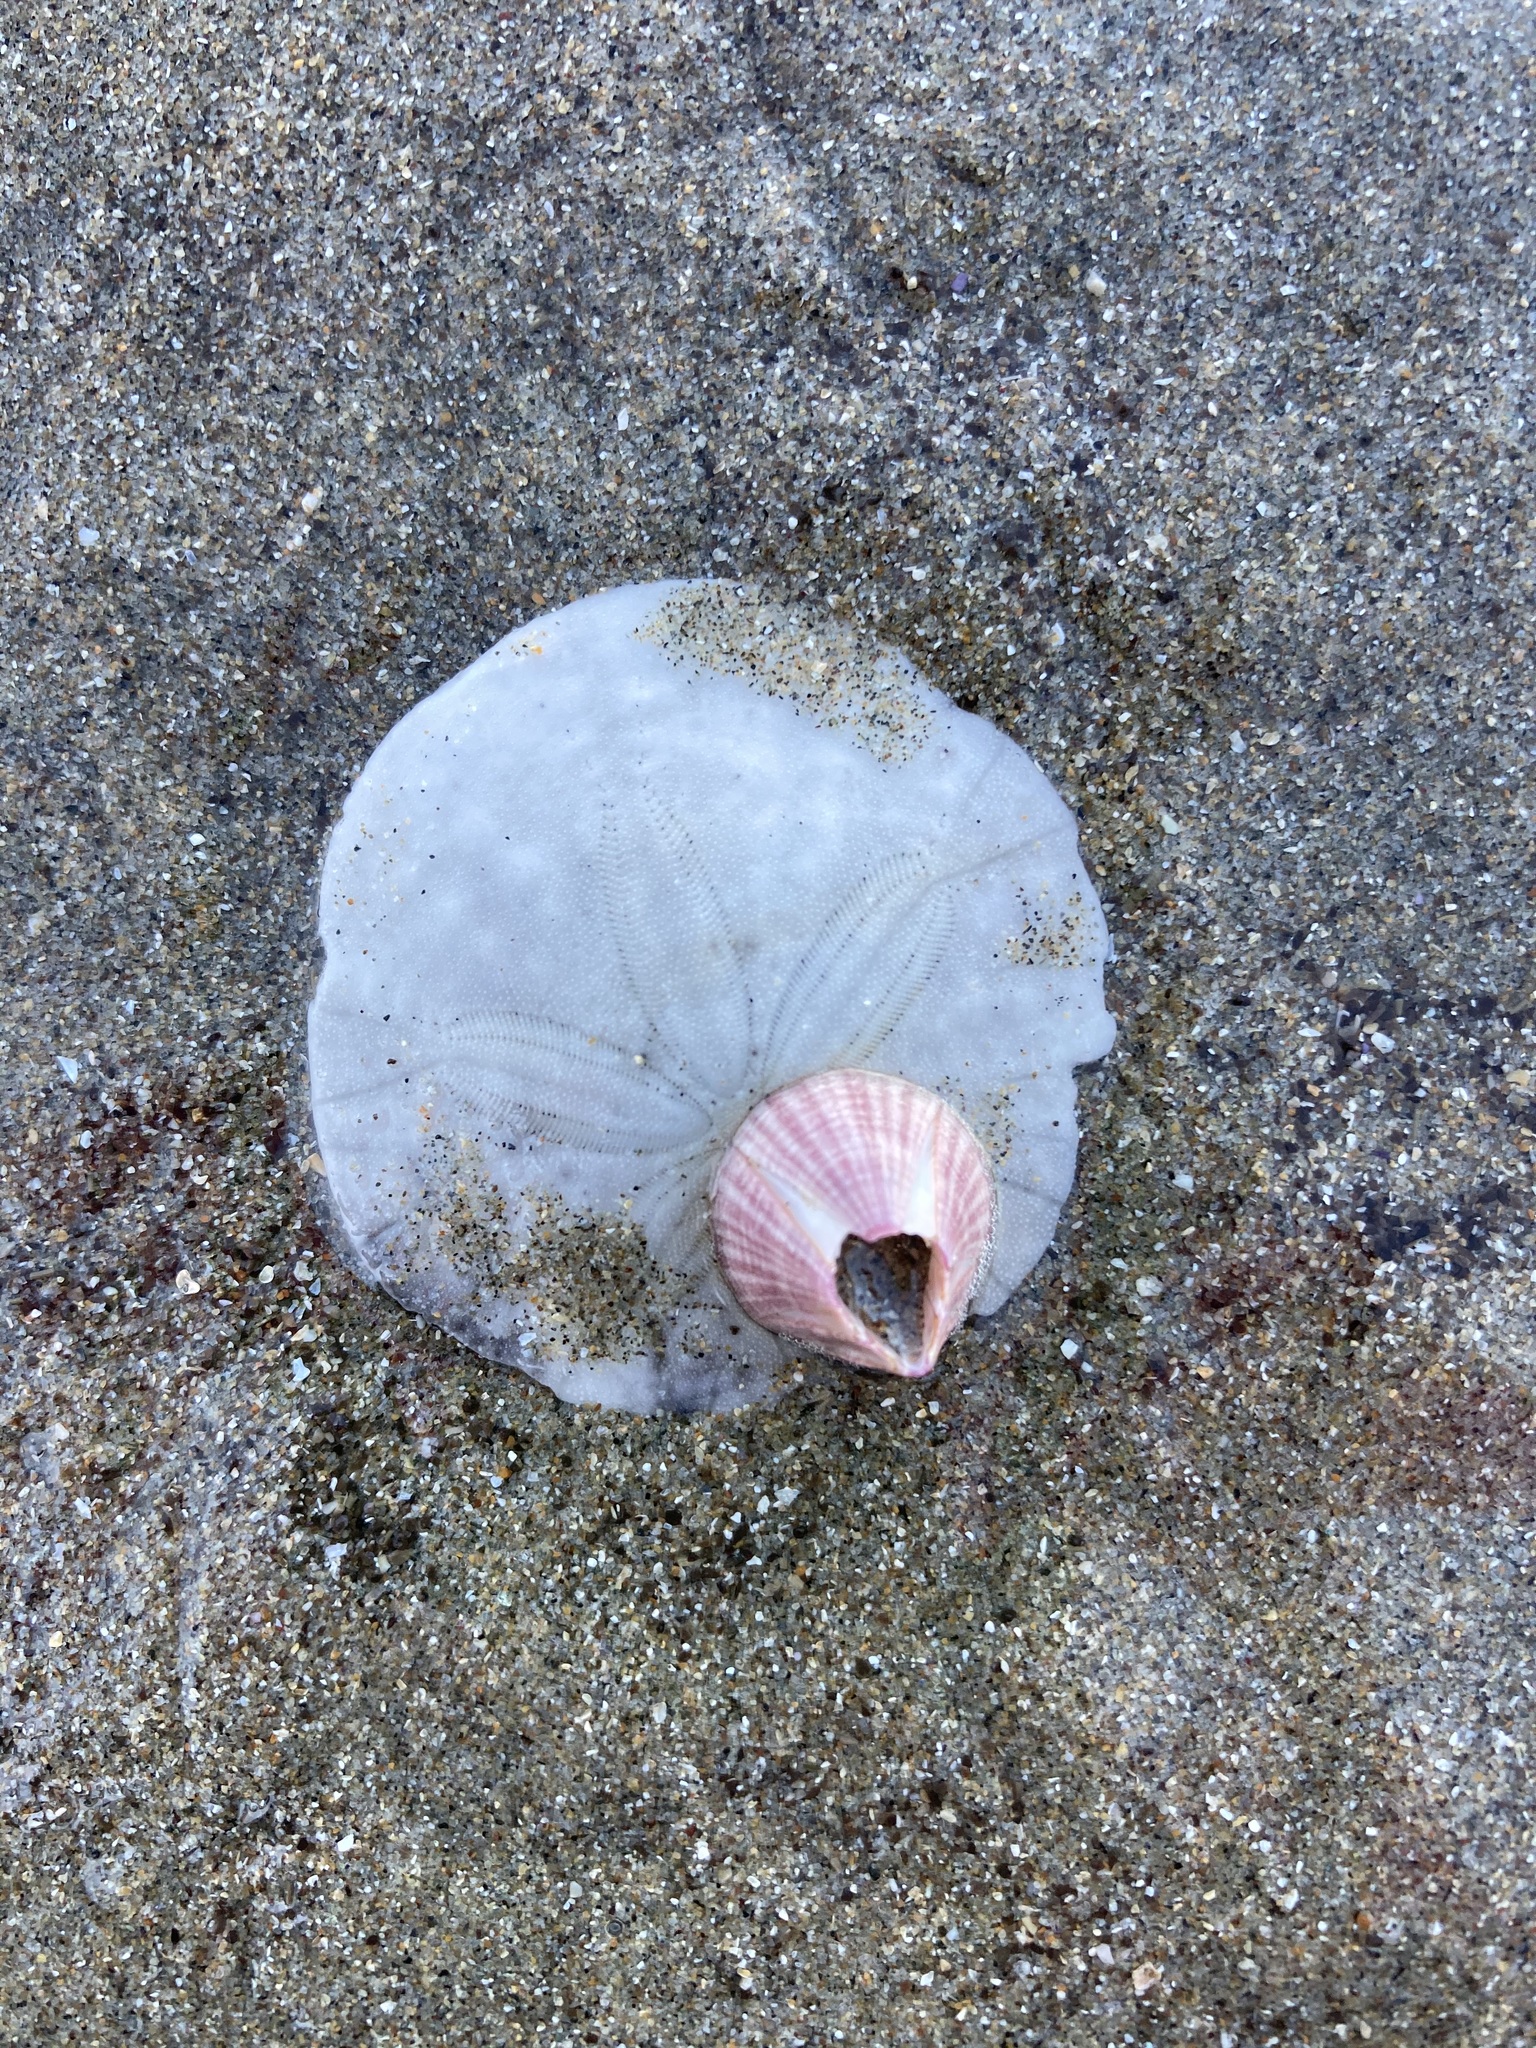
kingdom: Animalia
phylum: Arthropoda
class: Maxillopoda
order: Sessilia
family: Balanidae
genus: Paraconcavus
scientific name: Paraconcavus pacificus
